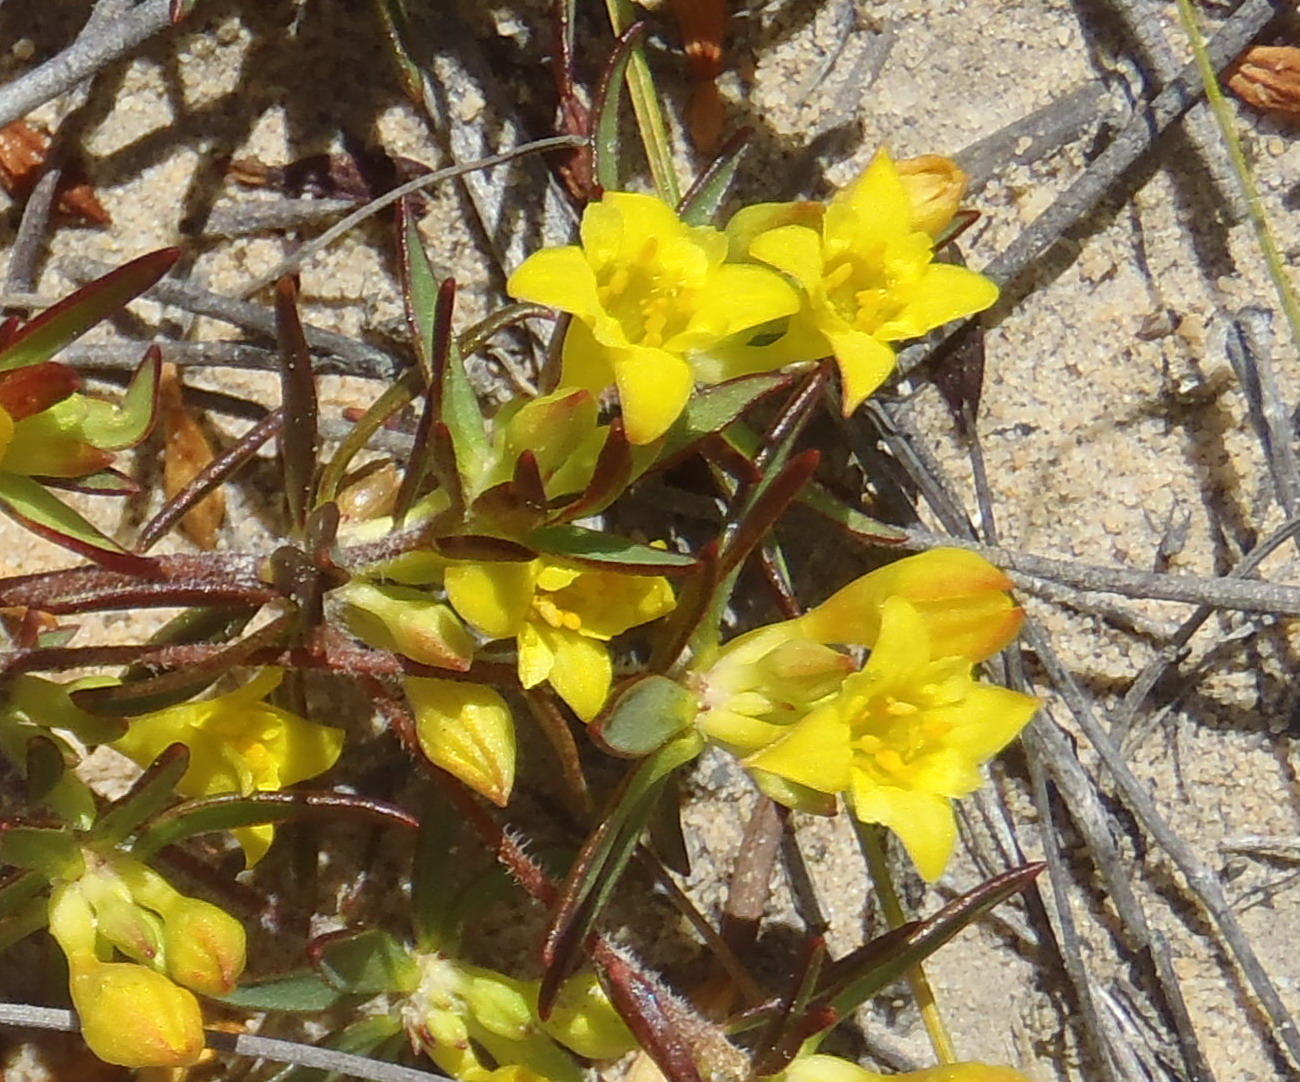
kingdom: Plantae
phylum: Tracheophyta
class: Magnoliopsida
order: Malvales
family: Thymelaeaceae
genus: Gnidia
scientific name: Gnidia juniperifolia
